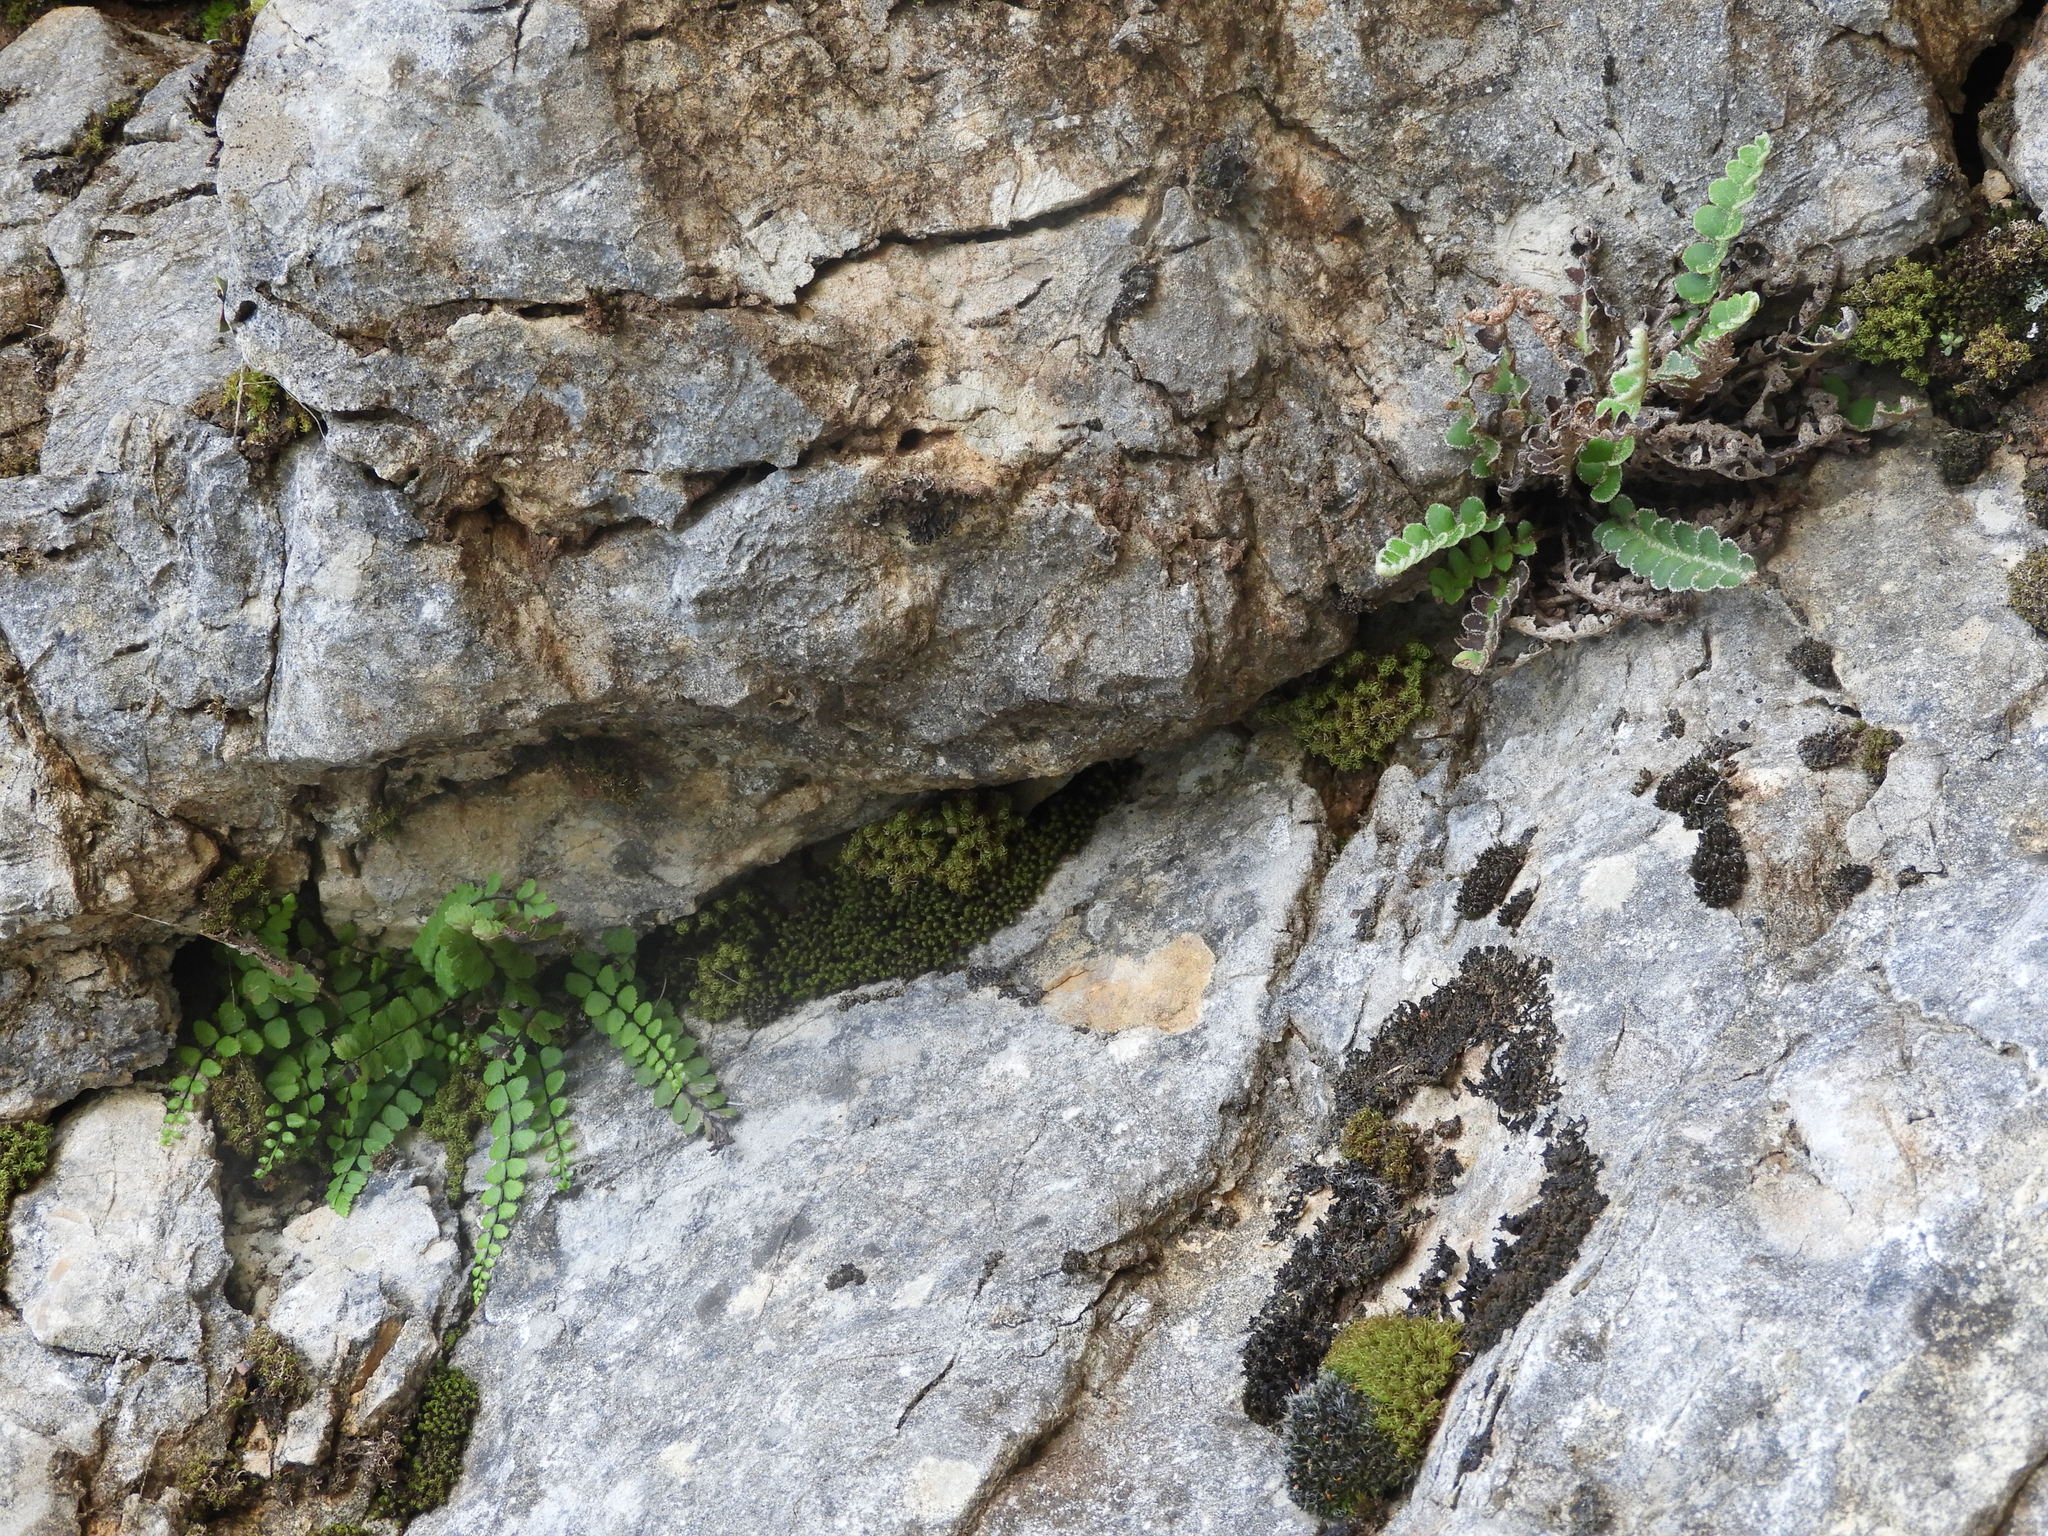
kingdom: Plantae
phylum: Tracheophyta
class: Polypodiopsida
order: Polypodiales
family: Aspleniaceae
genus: Asplenium
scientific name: Asplenium trichomanes
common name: Maidenhair spleenwort
